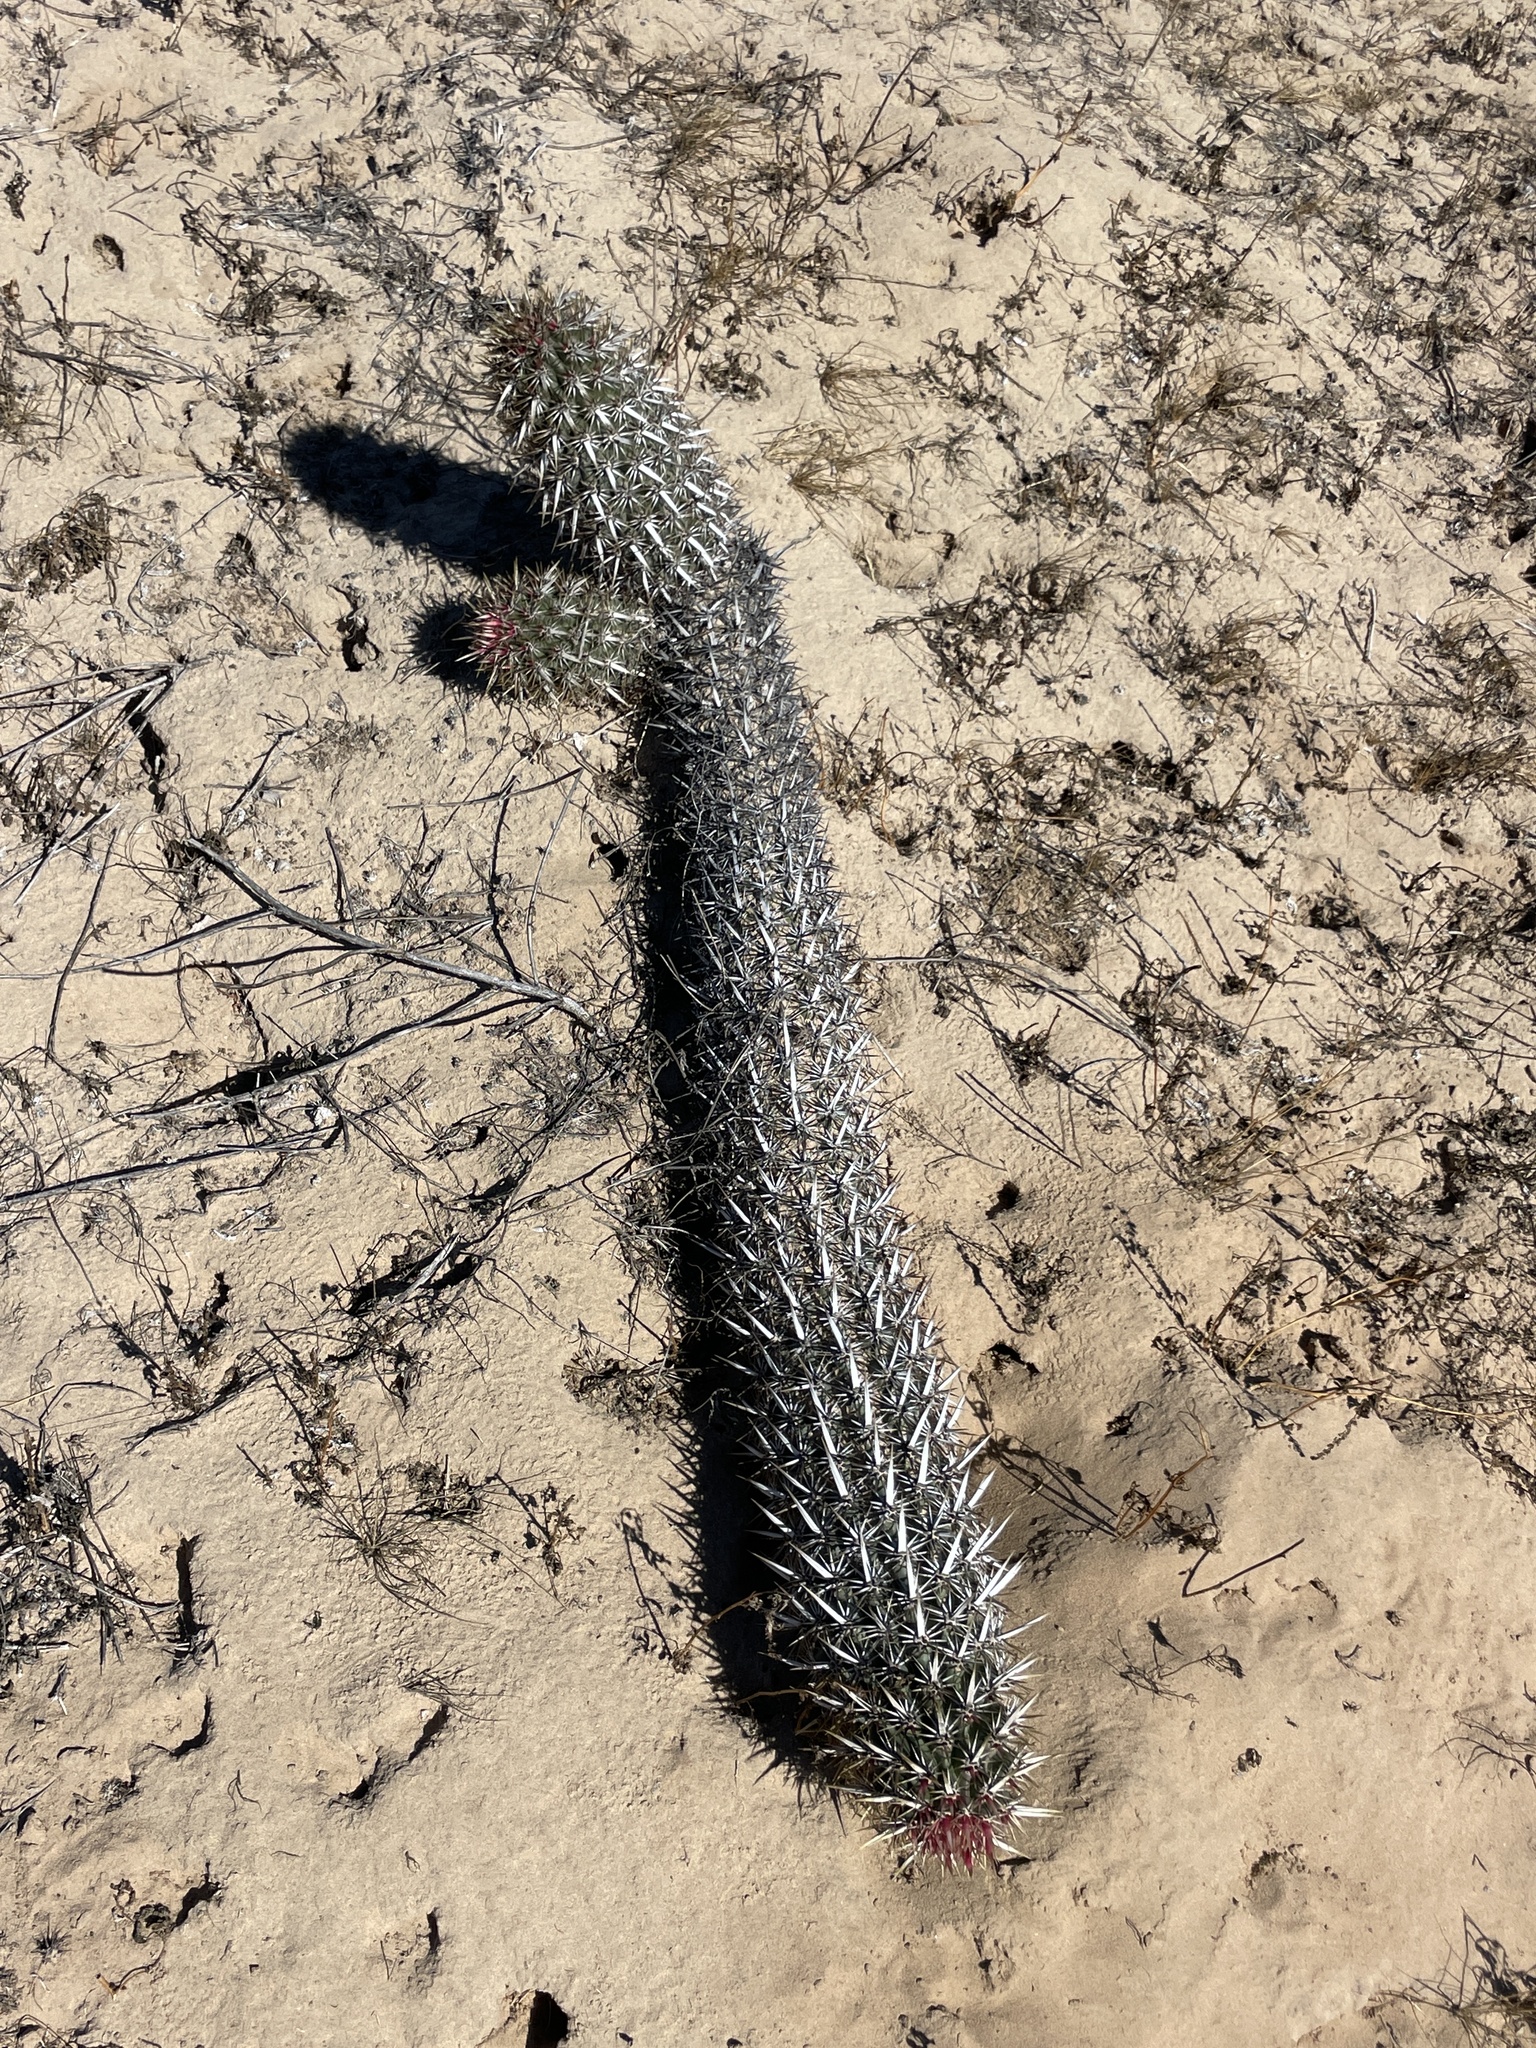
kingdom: Plantae
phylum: Tracheophyta
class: Magnoliopsida
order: Caryophyllales
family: Cactaceae
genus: Stenocereus
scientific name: Stenocereus eruca
